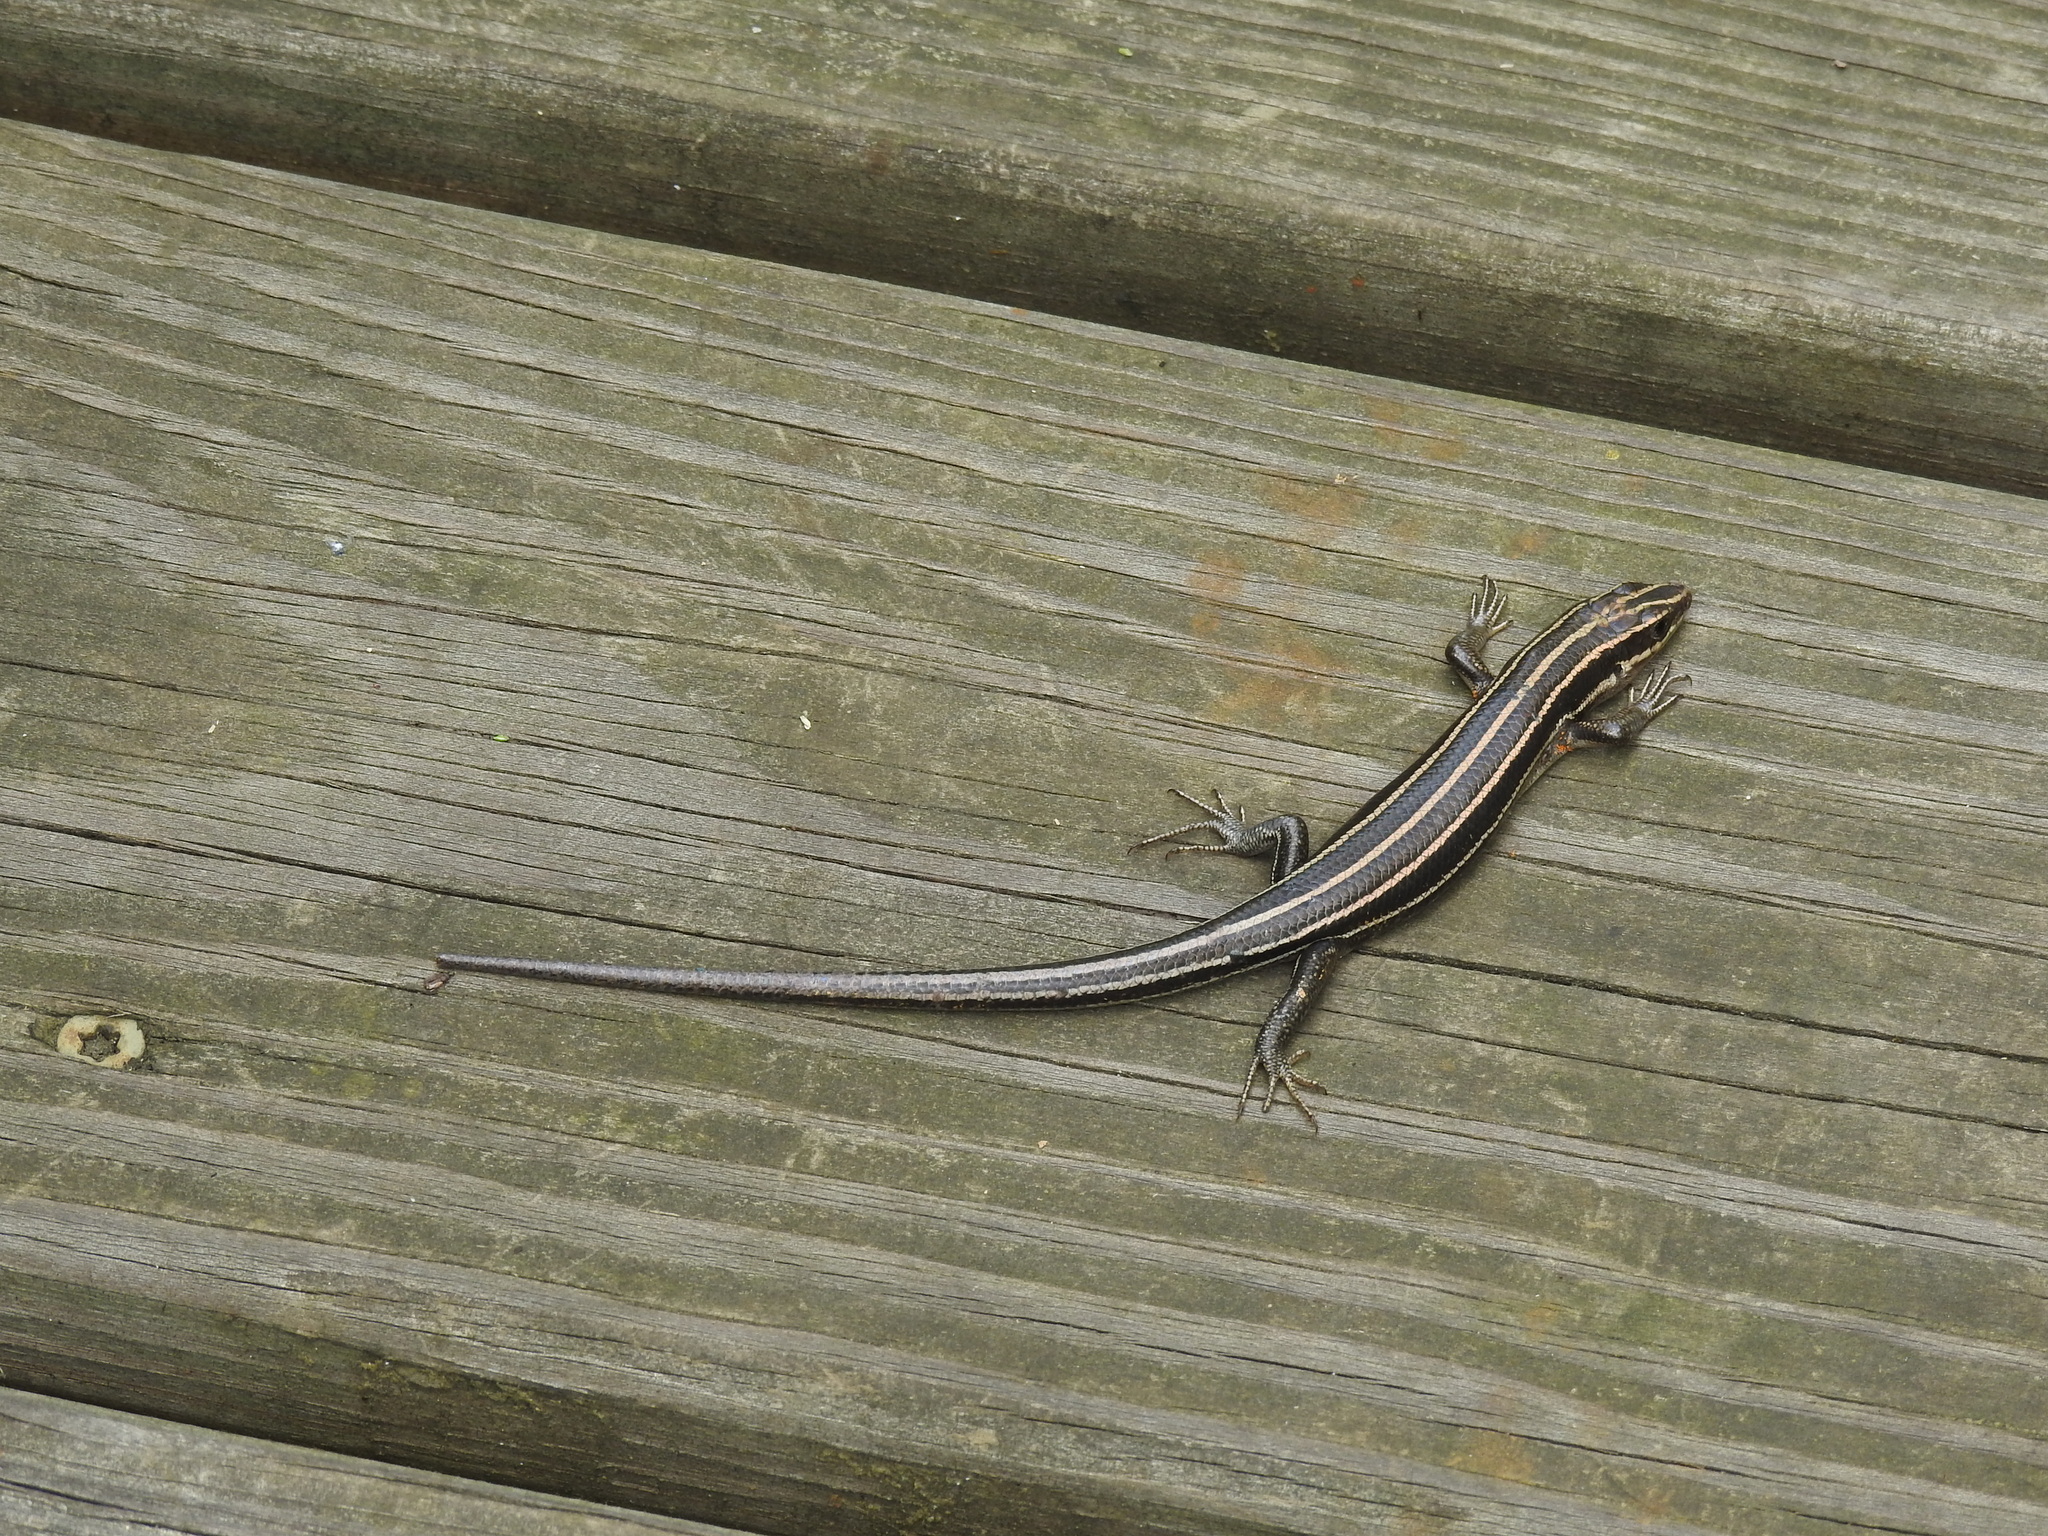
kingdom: Animalia
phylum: Chordata
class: Squamata
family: Scincidae
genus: Plestiodon
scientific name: Plestiodon fasciatus
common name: Five-lined skink
